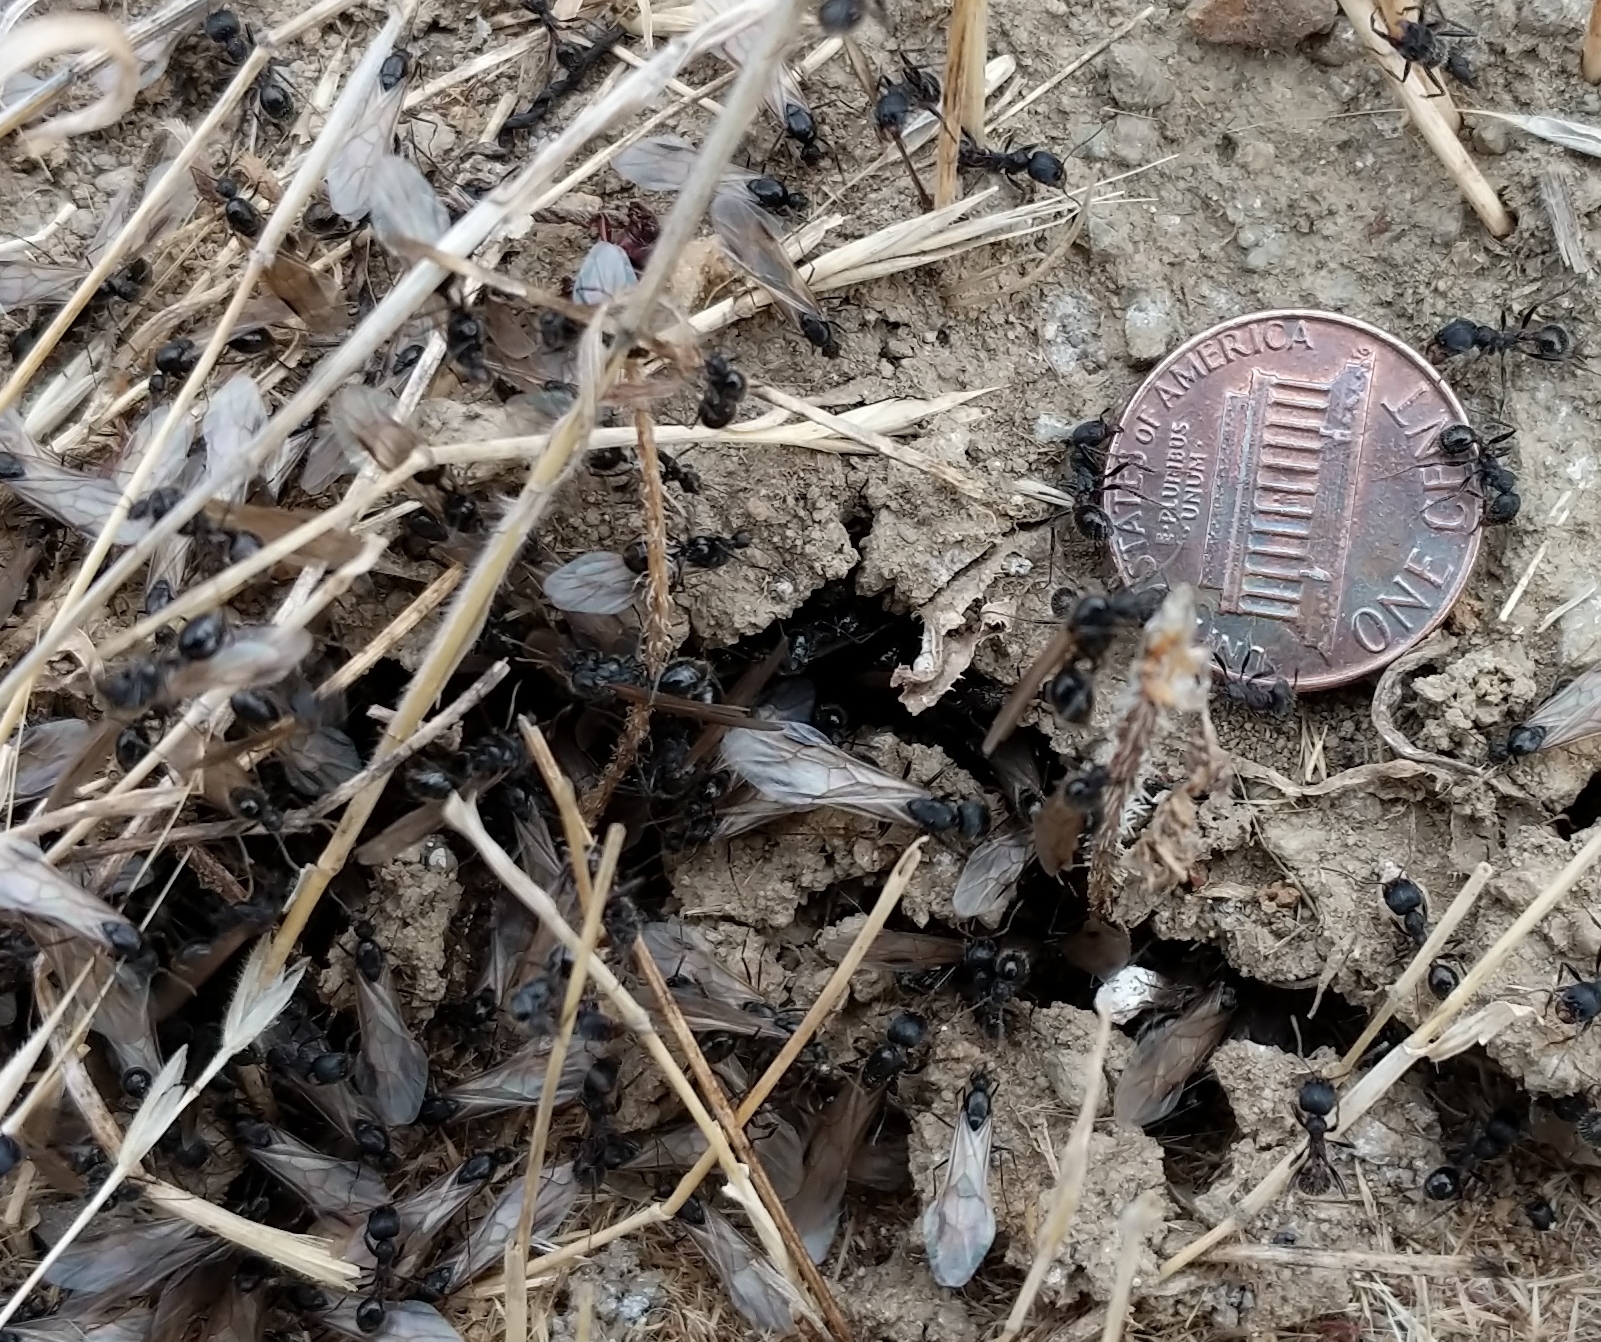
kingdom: Animalia
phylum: Arthropoda
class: Insecta
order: Hymenoptera
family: Formicidae
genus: Veromessor
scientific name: Veromessor andrei
